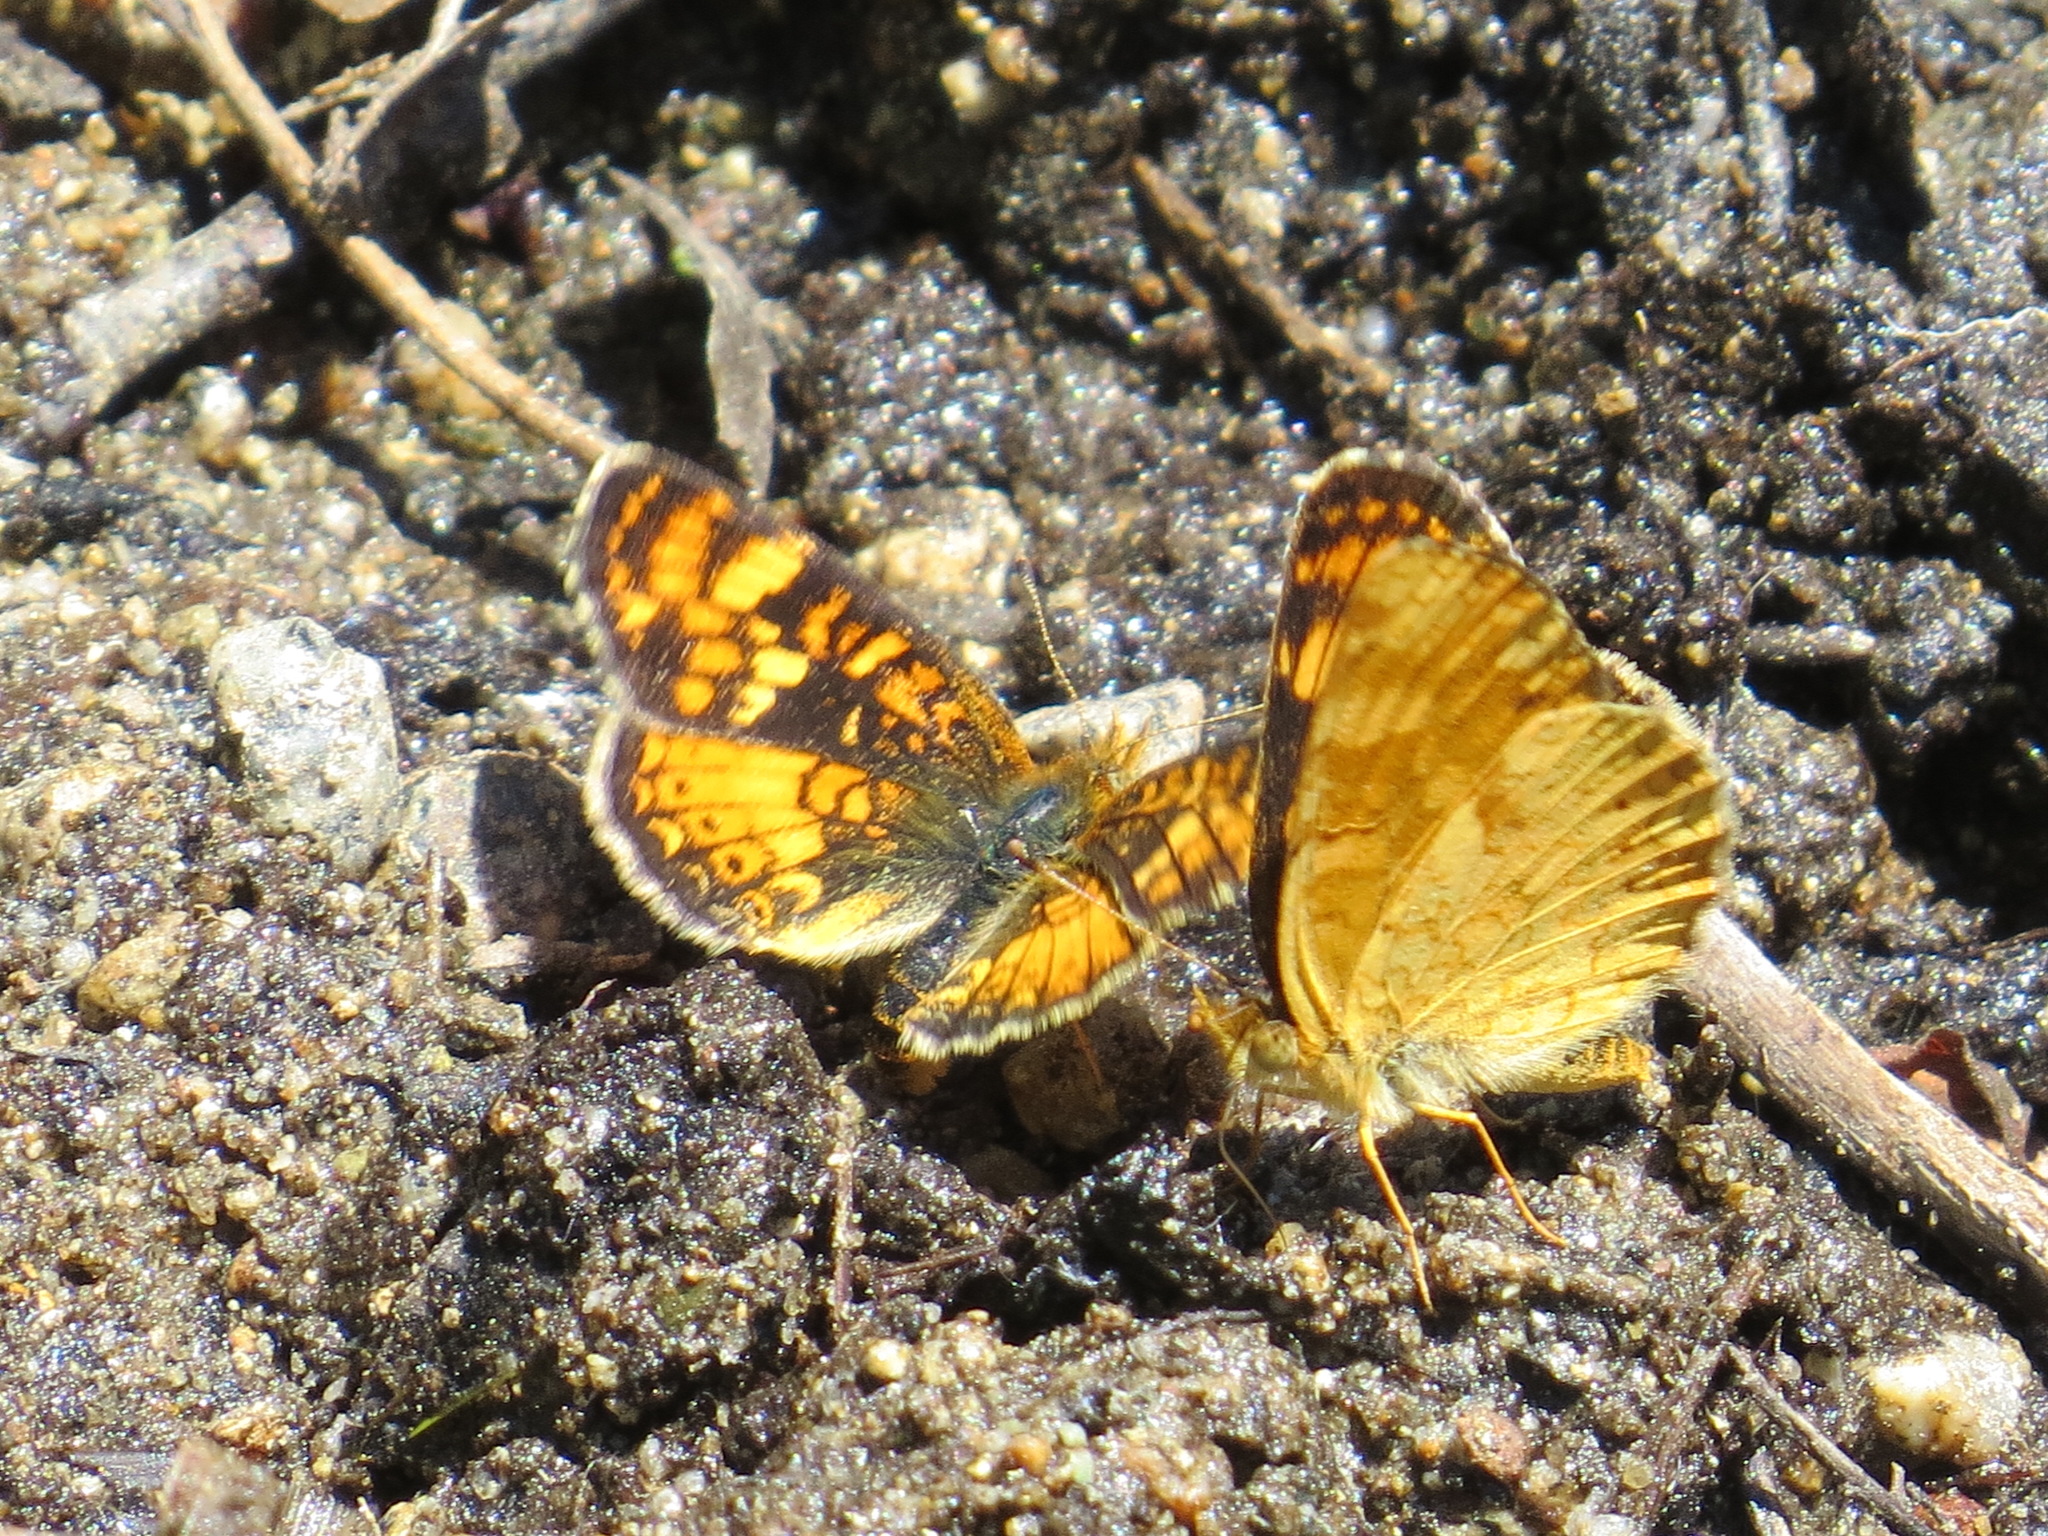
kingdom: Animalia
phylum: Arthropoda
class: Insecta
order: Lepidoptera
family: Nymphalidae
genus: Phyciodes
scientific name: Phyciodes montana
